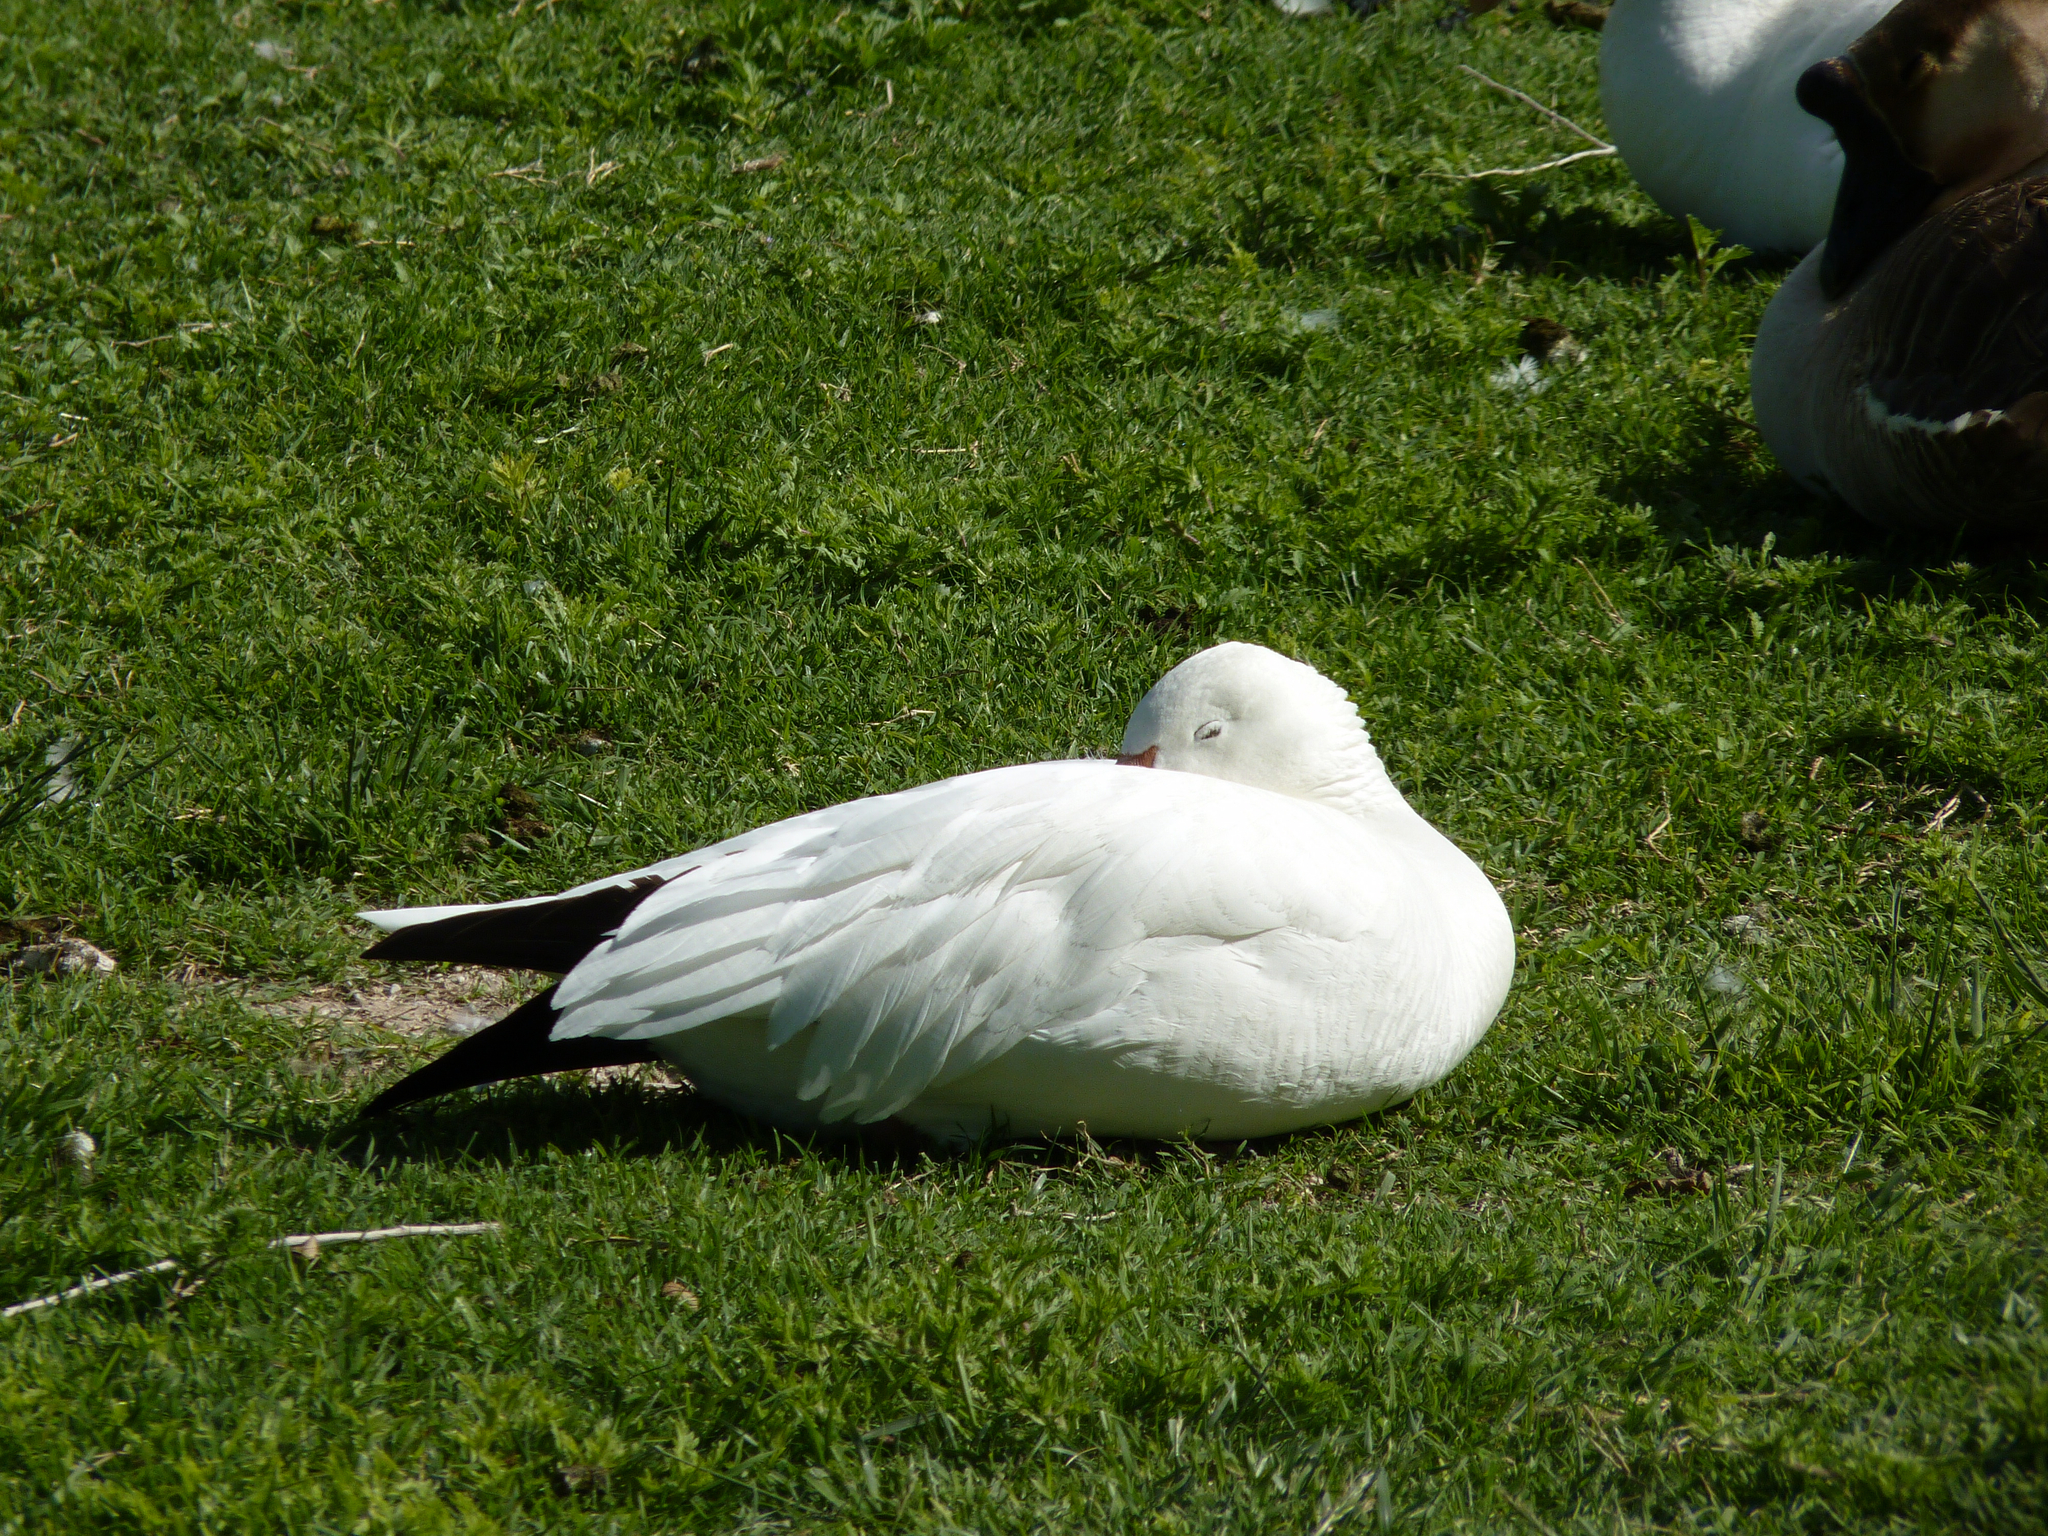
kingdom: Animalia
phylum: Chordata
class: Aves
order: Anseriformes
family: Anatidae
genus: Anser
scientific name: Anser caerulescens
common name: Snow goose
